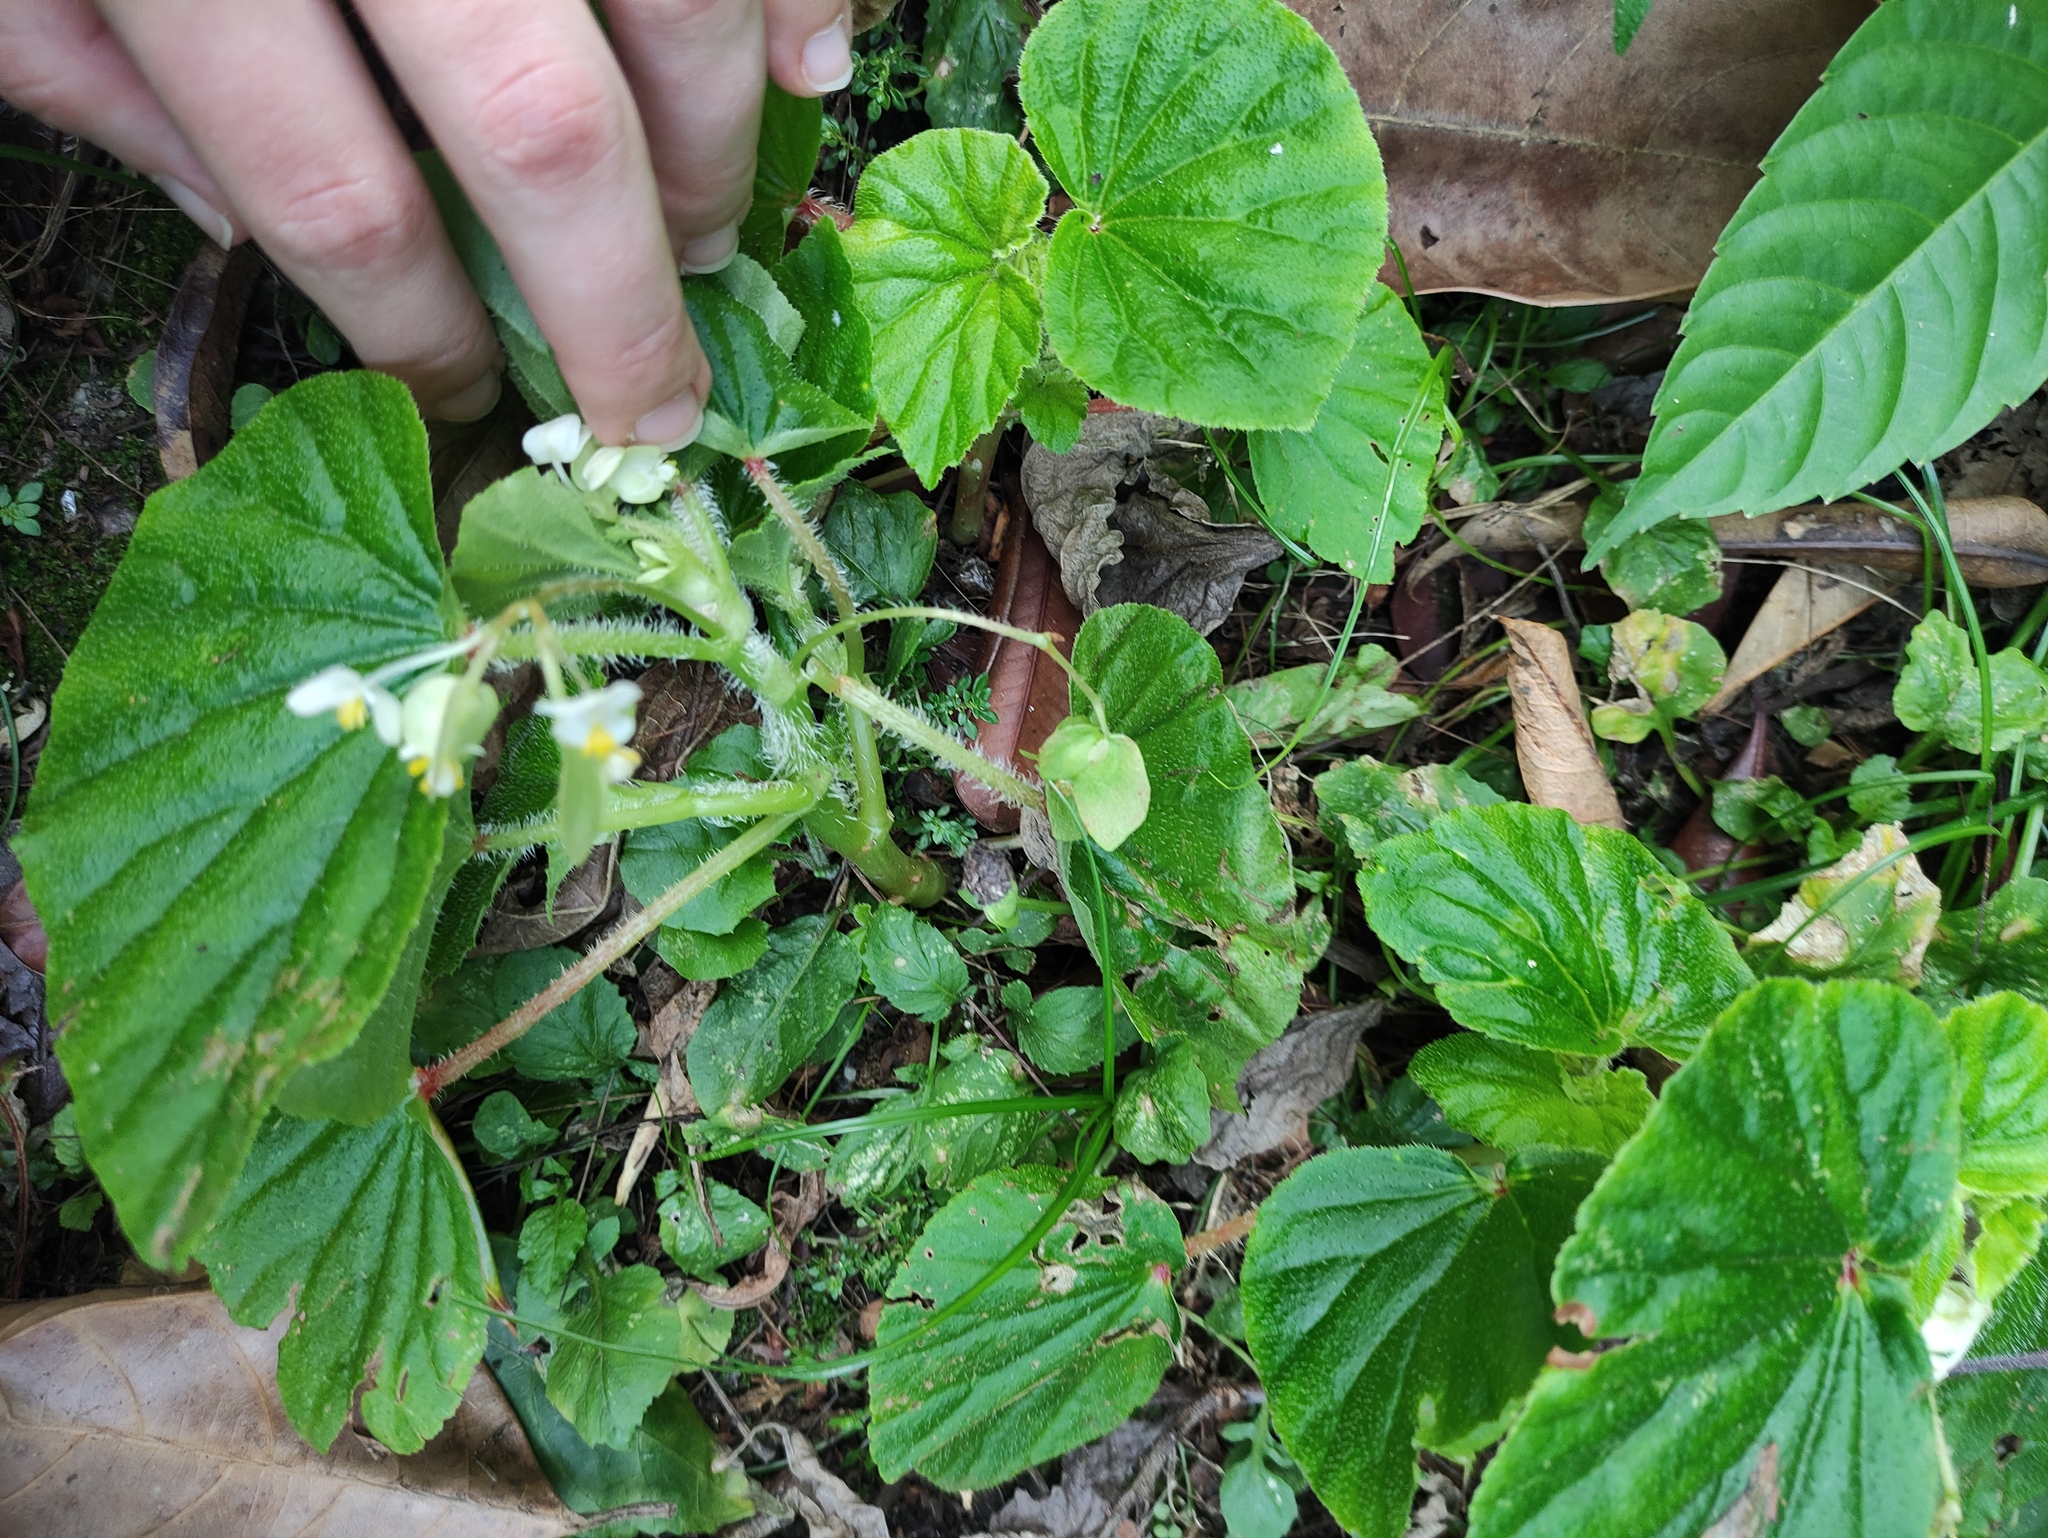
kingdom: Plantae
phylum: Tracheophyta
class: Magnoliopsida
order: Cucurbitales
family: Begoniaceae
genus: Begonia
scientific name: Begonia hirtella
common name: Brazilian begonia
